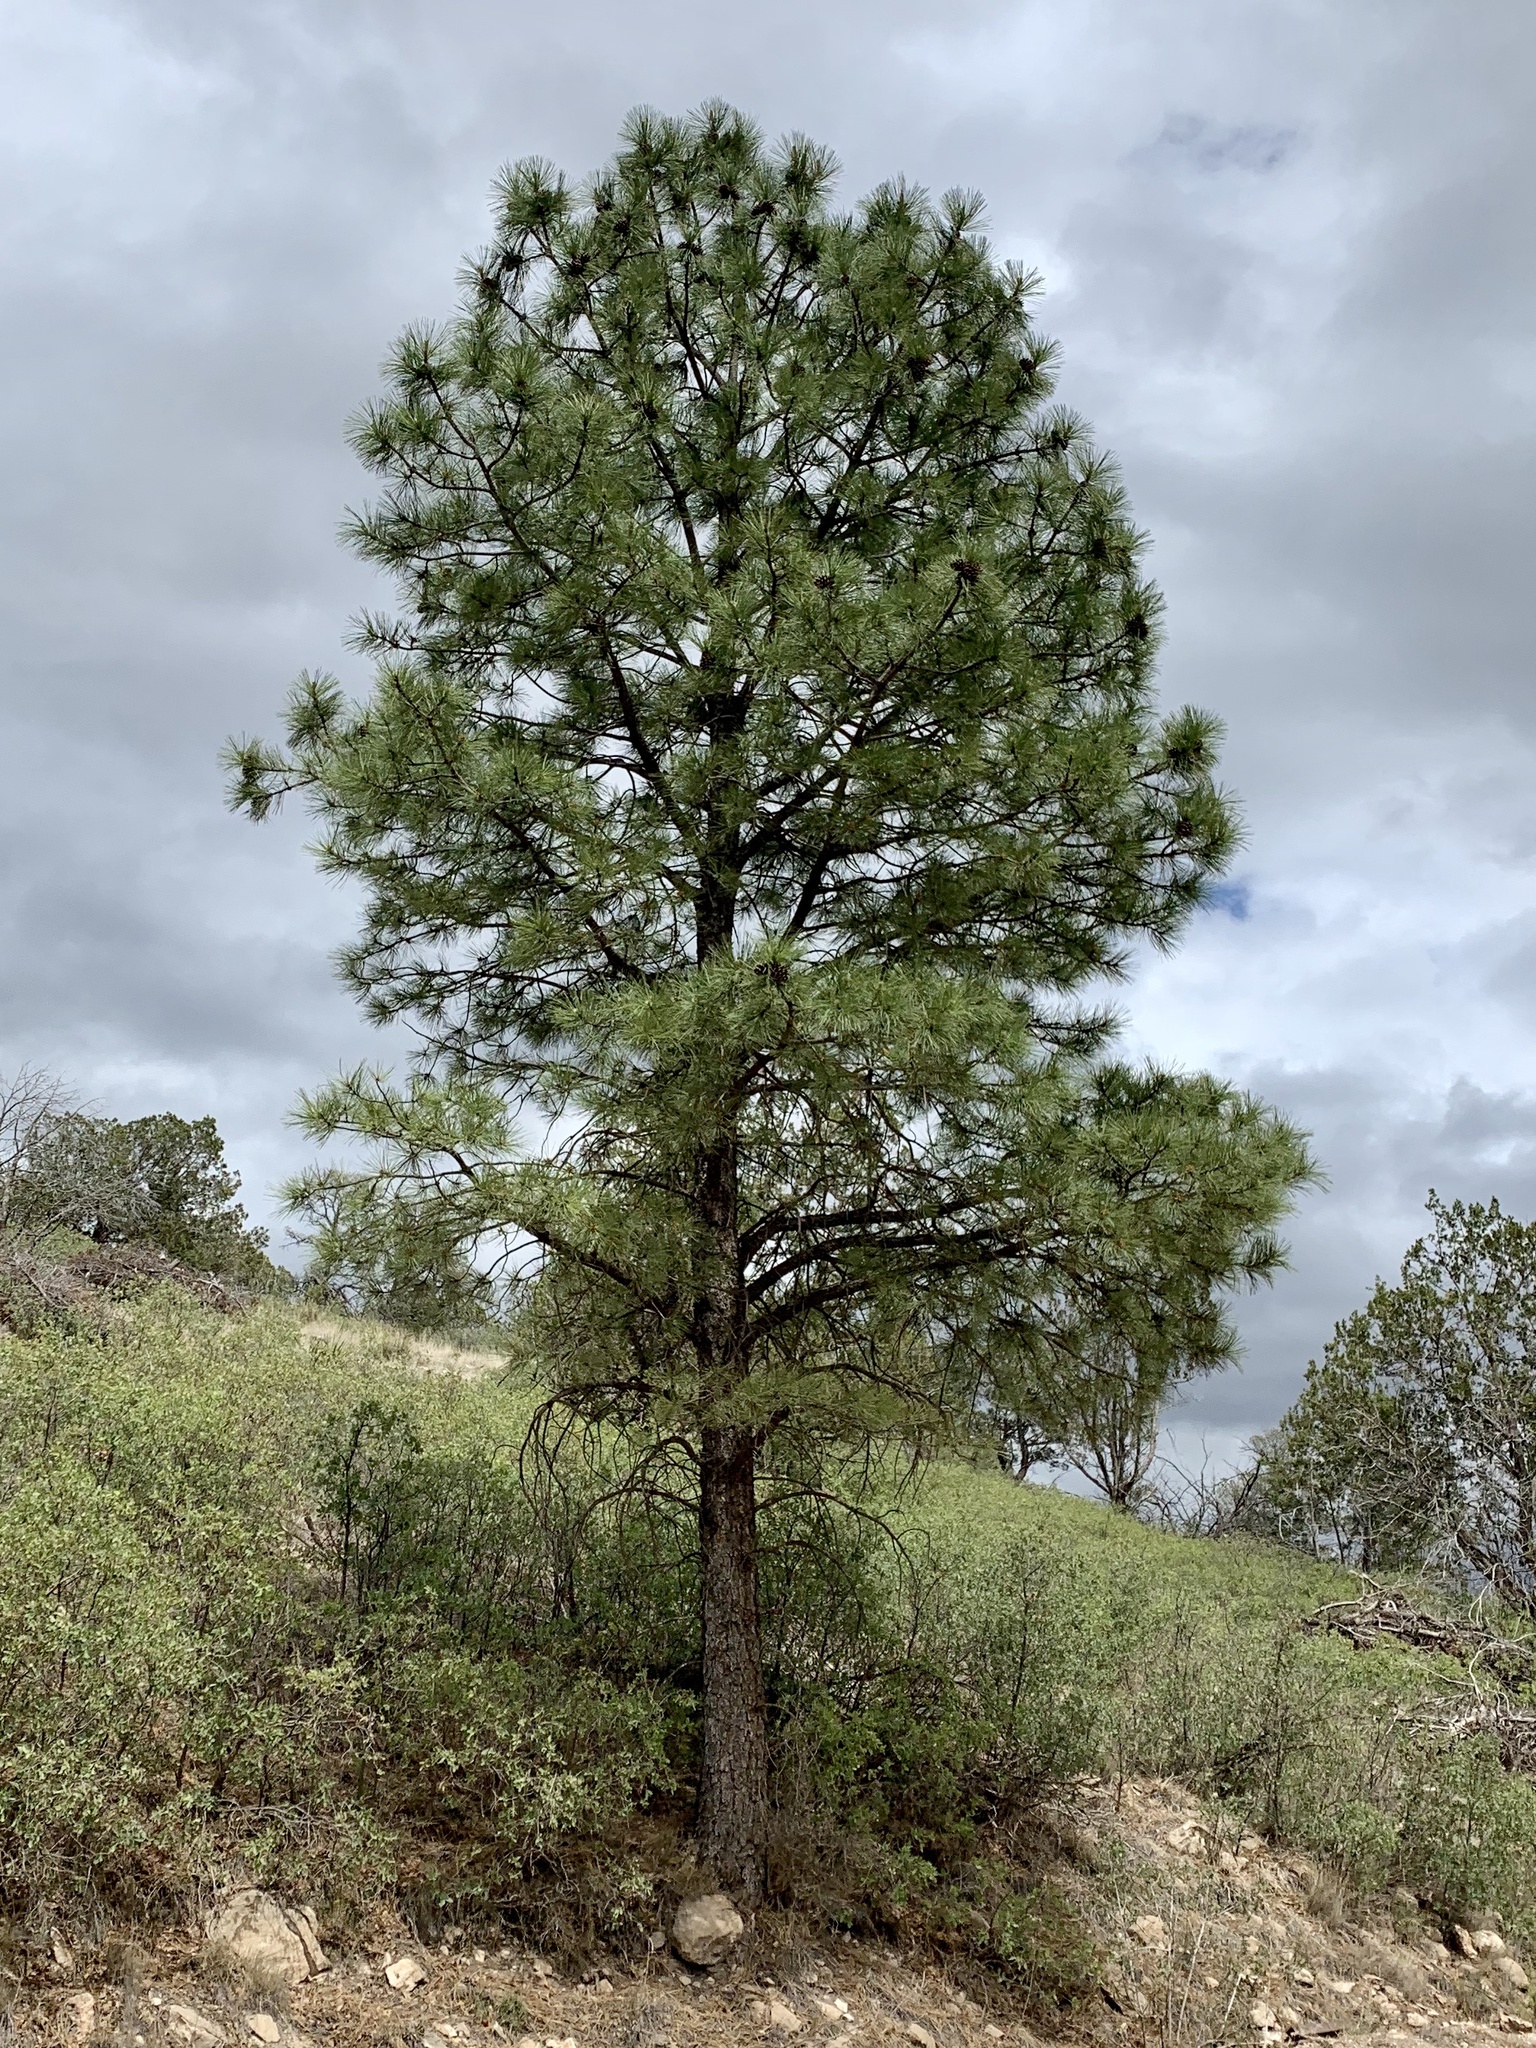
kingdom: Plantae
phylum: Tracheophyta
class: Pinopsida
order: Pinales
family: Pinaceae
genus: Pinus
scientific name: Pinus ponderosa
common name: Western yellow-pine
